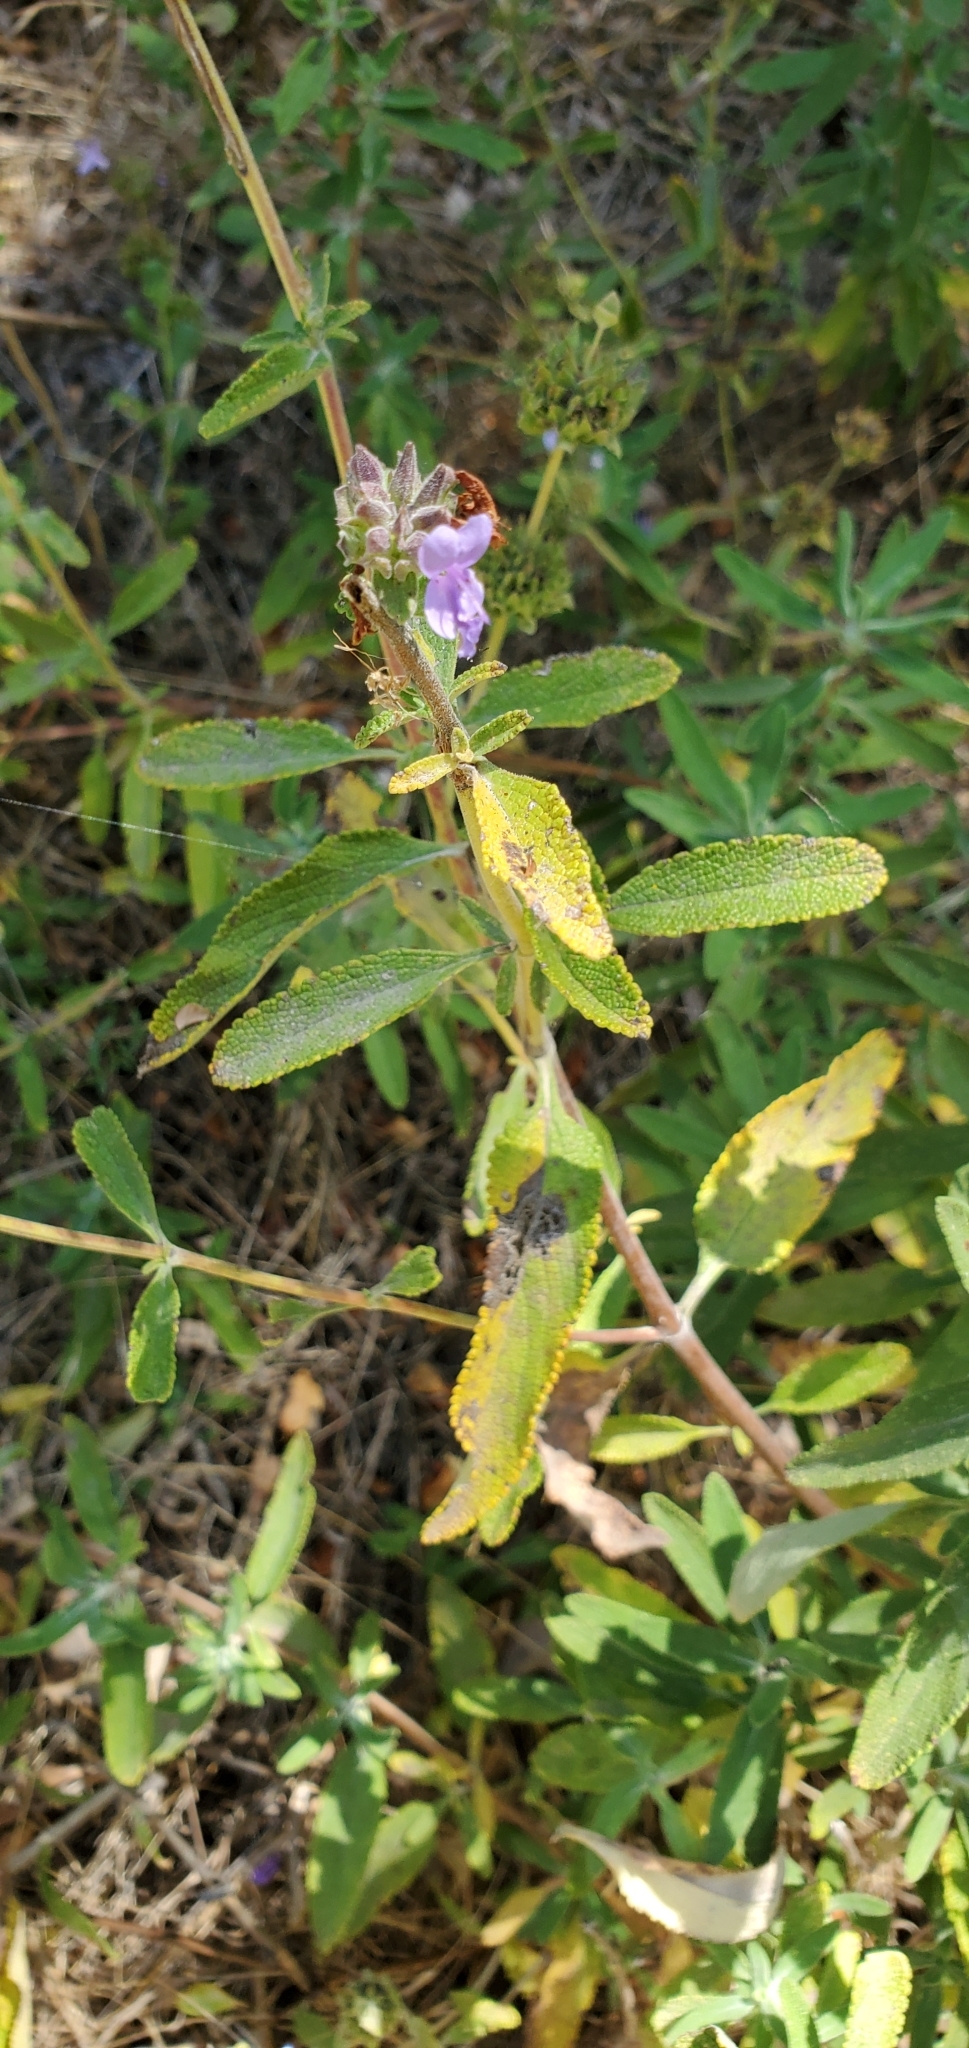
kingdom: Plantae
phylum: Tracheophyta
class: Magnoliopsida
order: Lamiales
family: Lamiaceae
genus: Salvia
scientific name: Salvia mellifera
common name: Black sage
